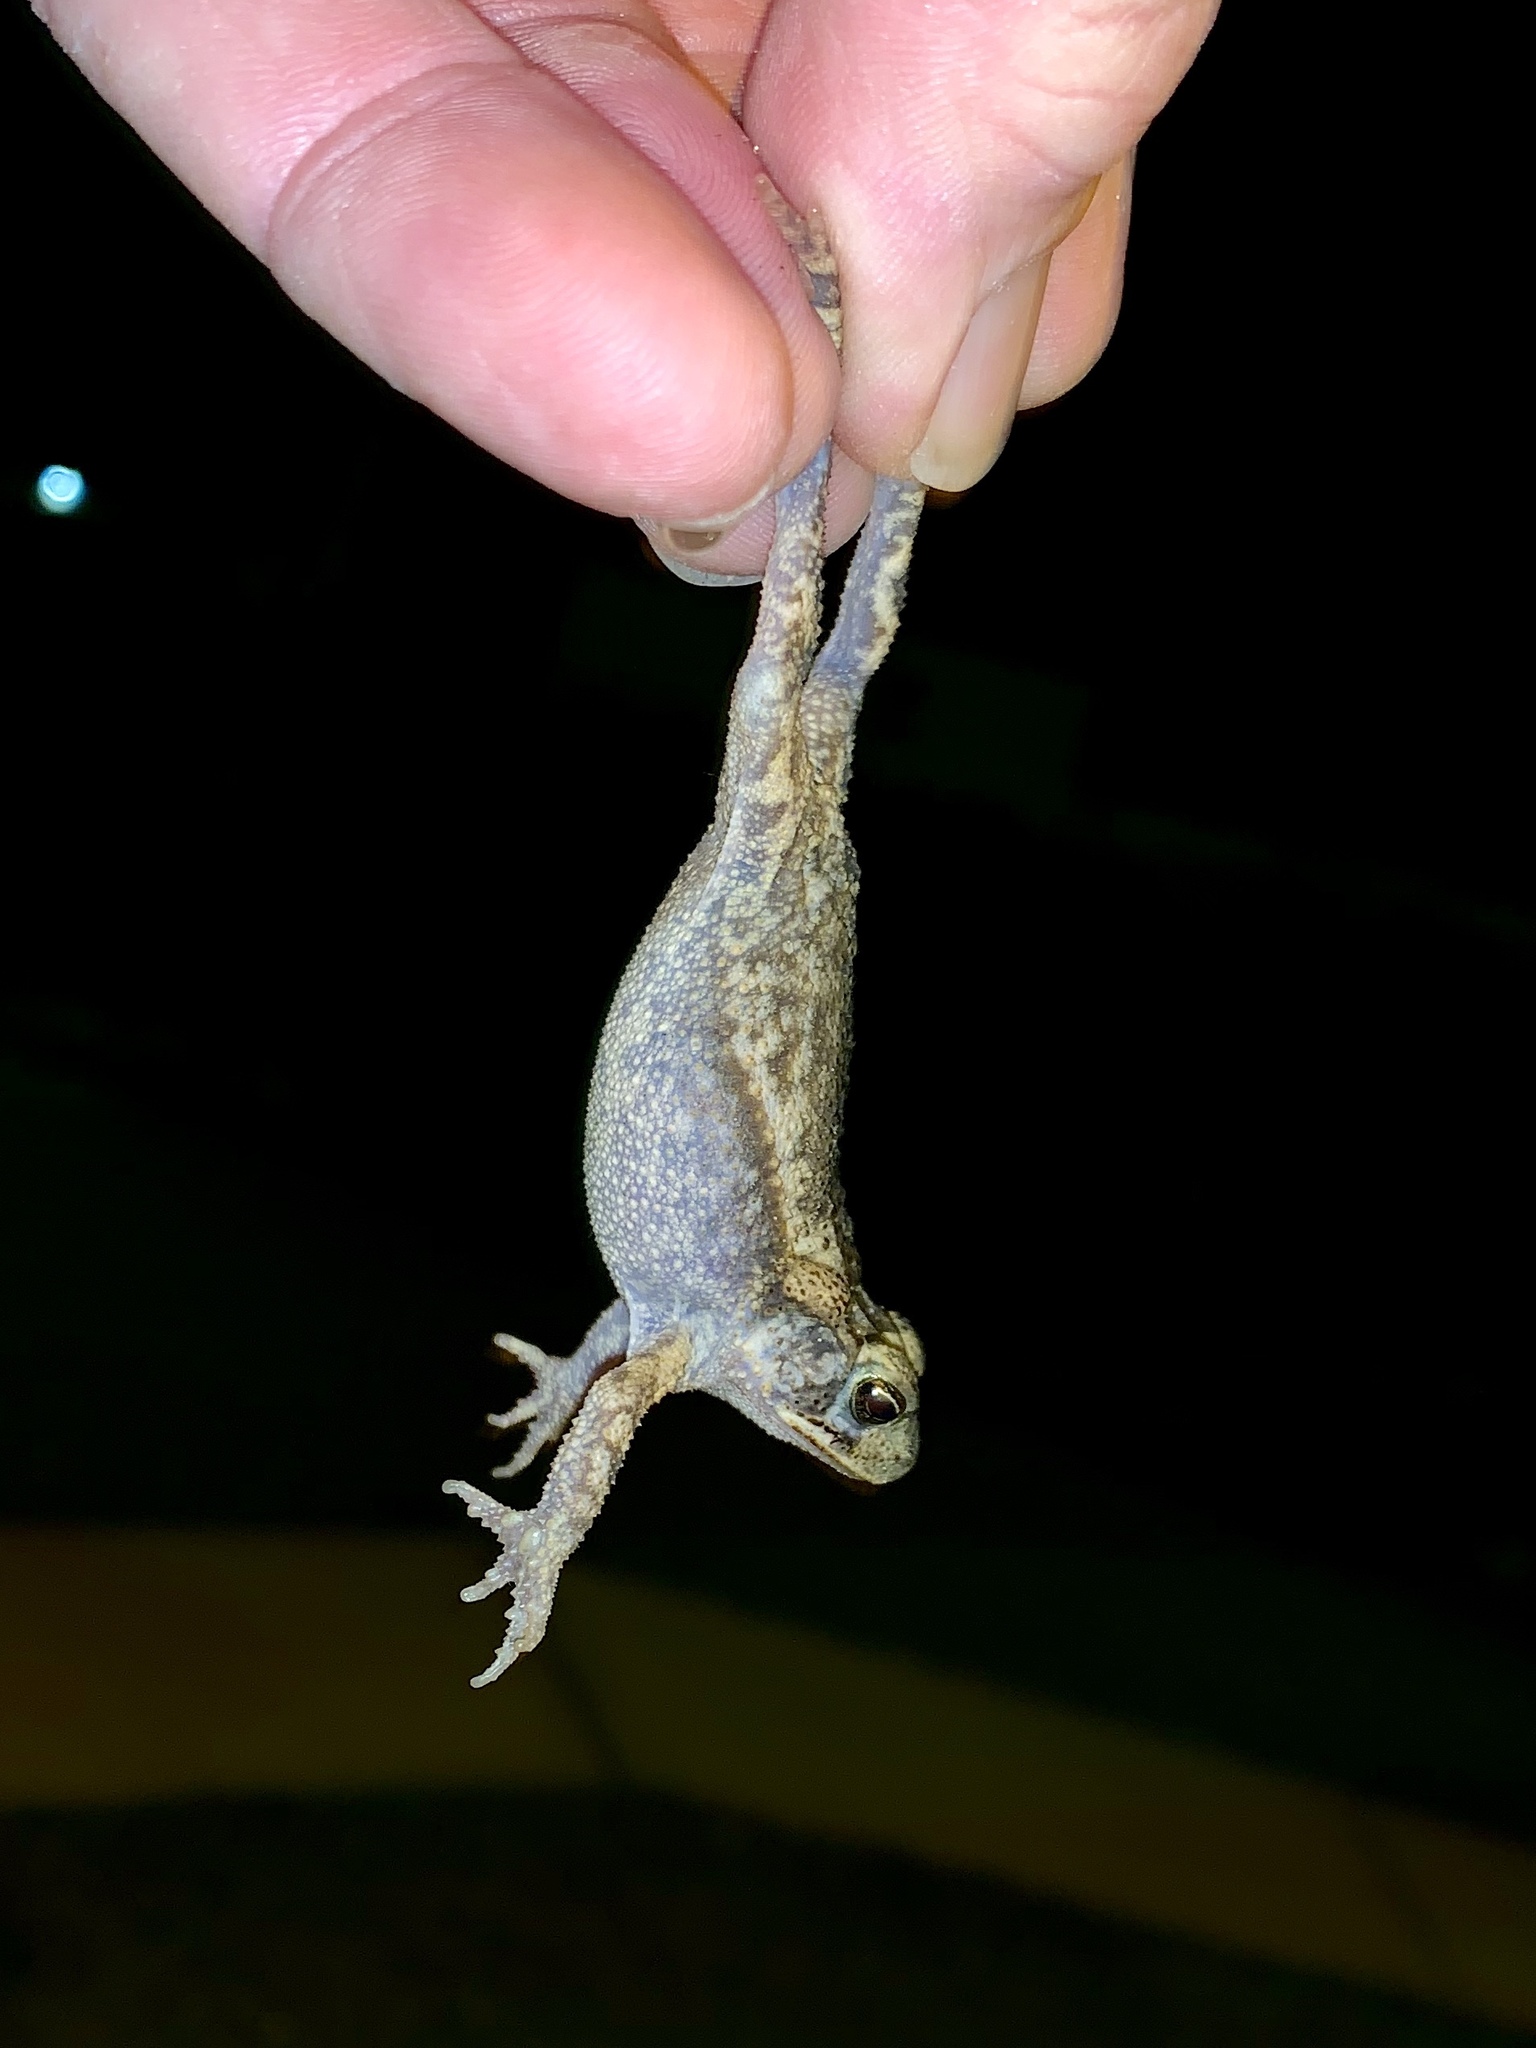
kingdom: Animalia
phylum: Chordata
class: Amphibia
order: Anura
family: Bufonidae
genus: Incilius
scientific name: Incilius nebulifer
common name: Gulf coast toad
